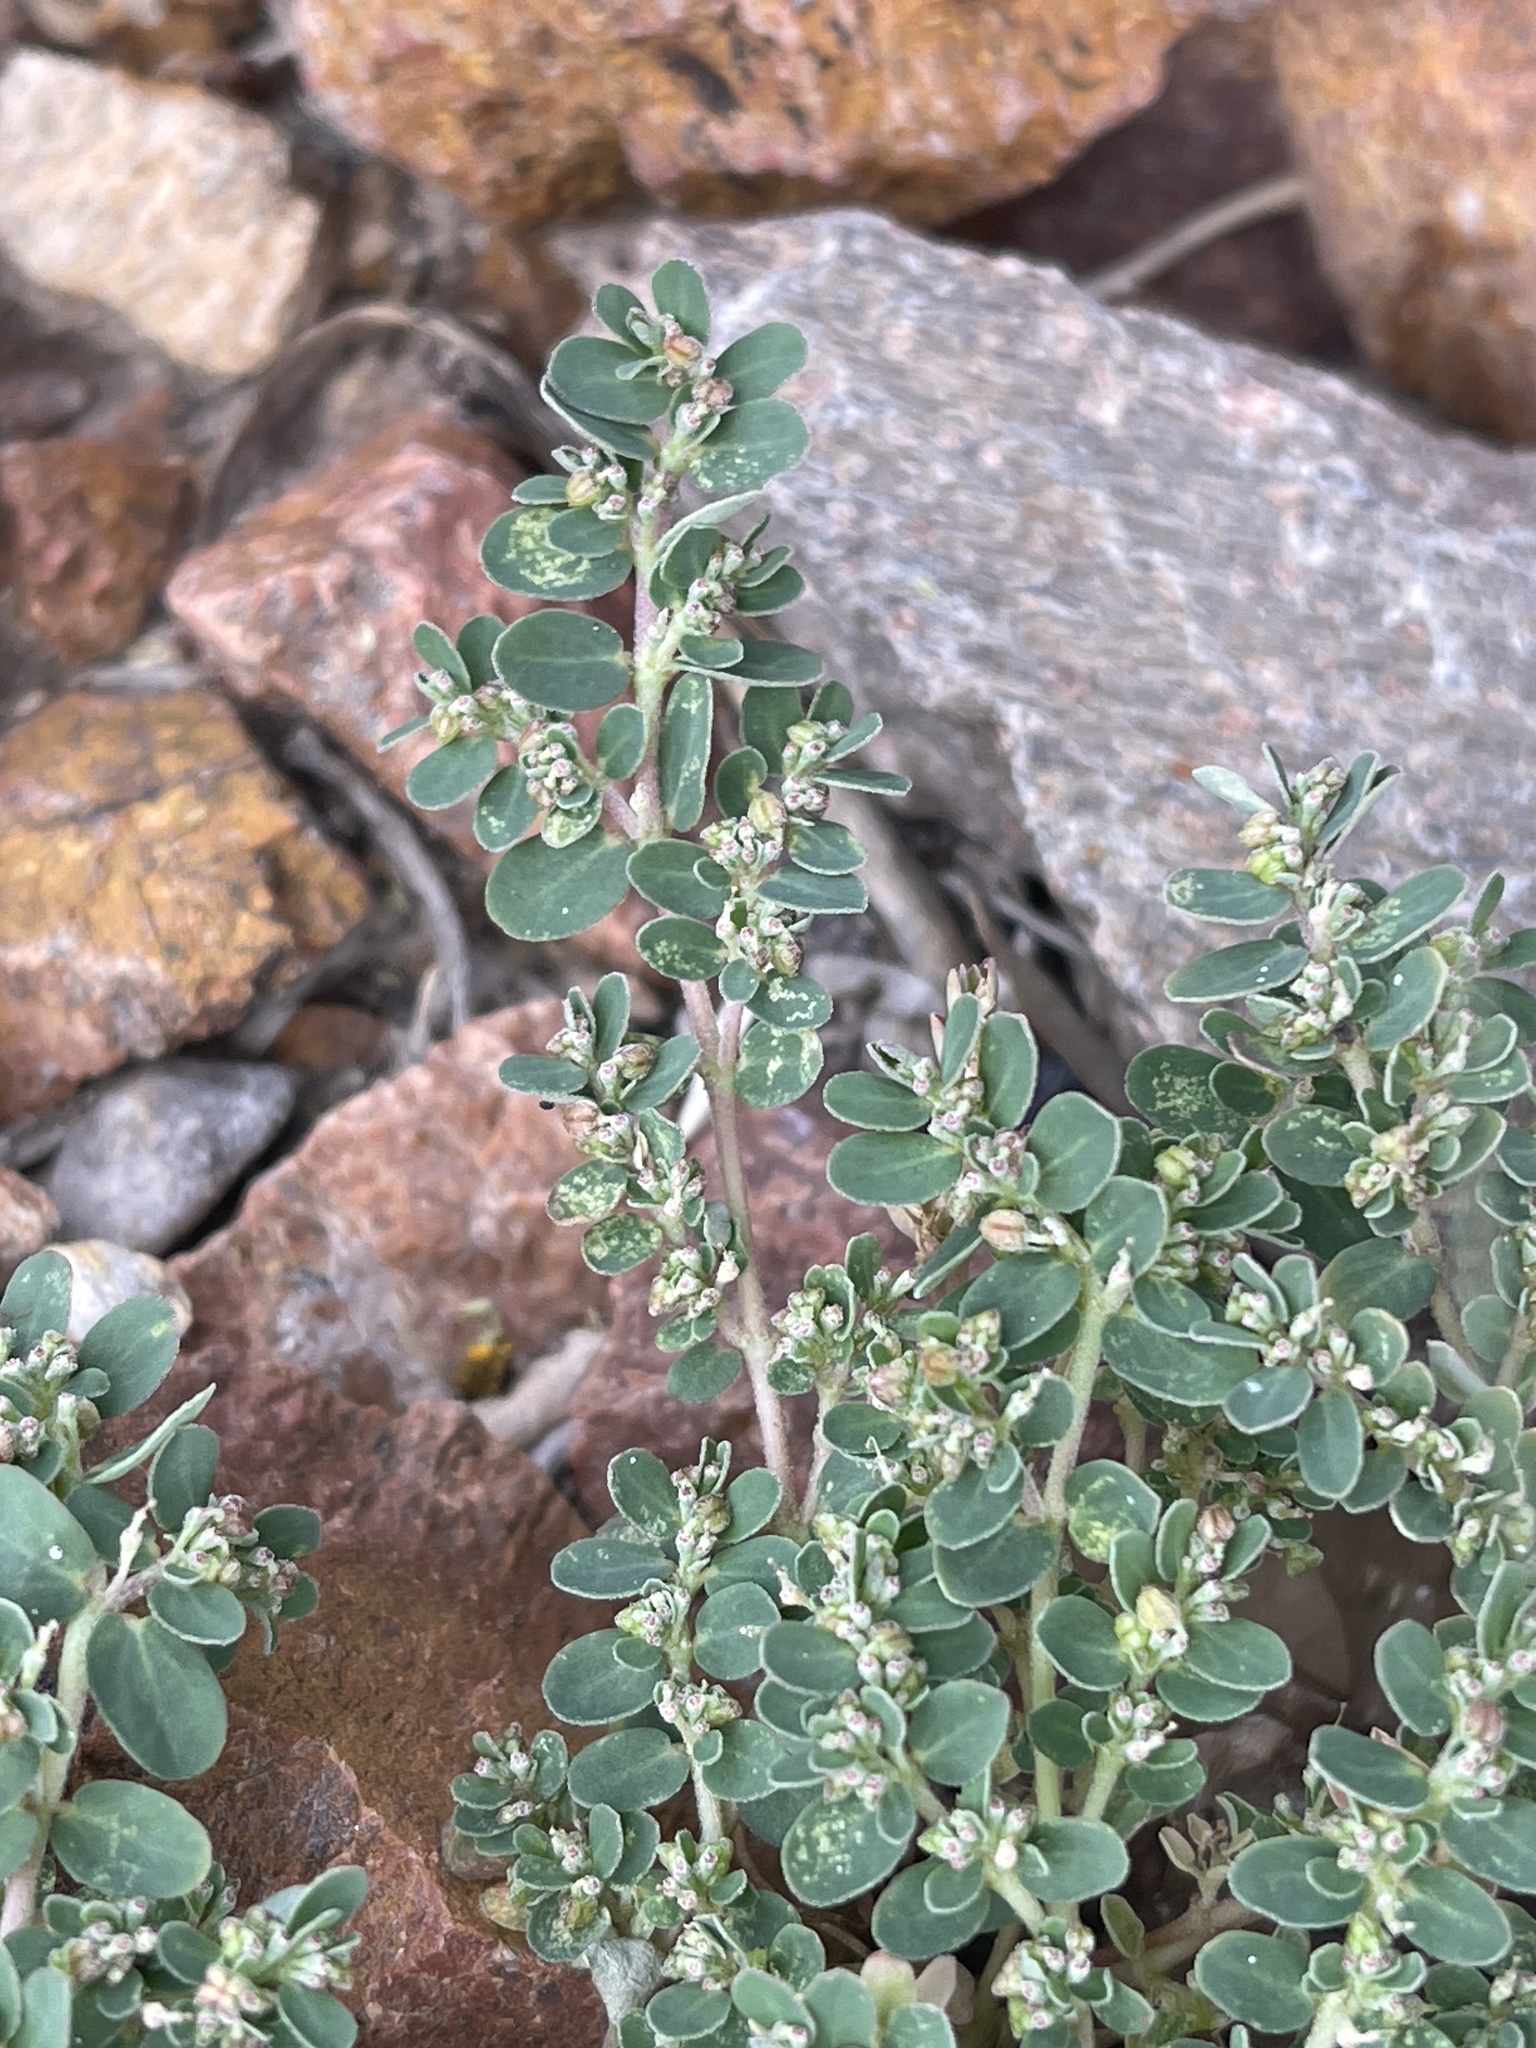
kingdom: Plantae
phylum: Tracheophyta
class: Magnoliopsida
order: Malpighiales
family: Euphorbiaceae
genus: Euphorbia
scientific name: Euphorbia prostrata
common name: Prostrate sandmat
